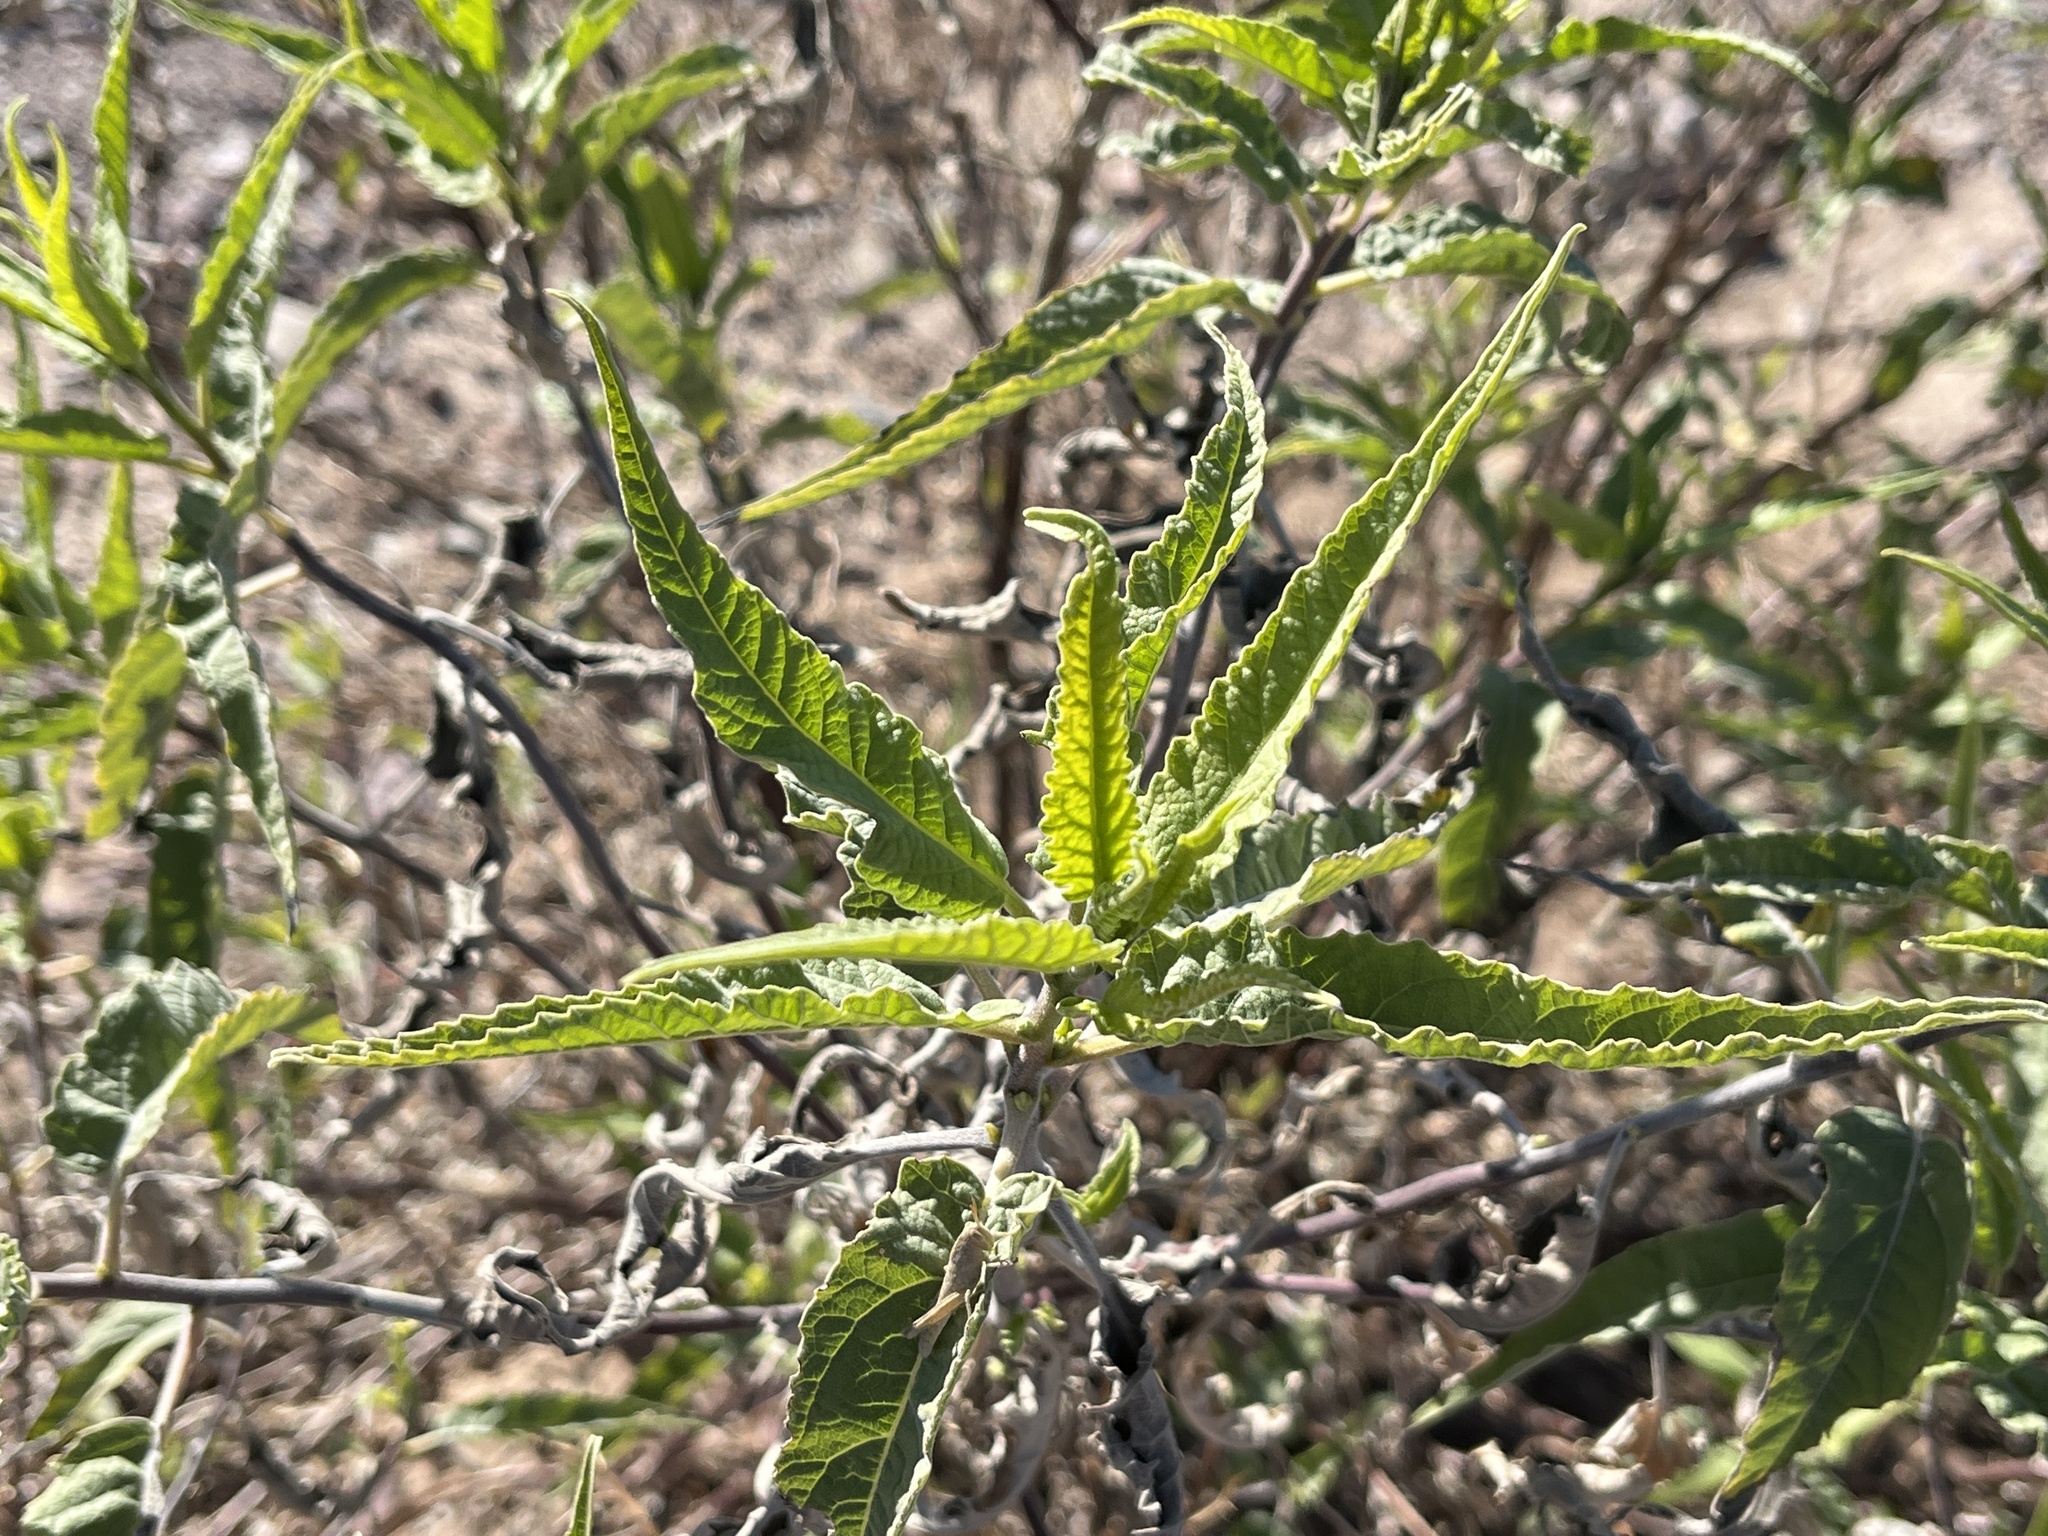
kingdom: Plantae
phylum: Tracheophyta
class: Magnoliopsida
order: Asterales
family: Asteraceae
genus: Ambrosia
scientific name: Ambrosia ambrosioides
